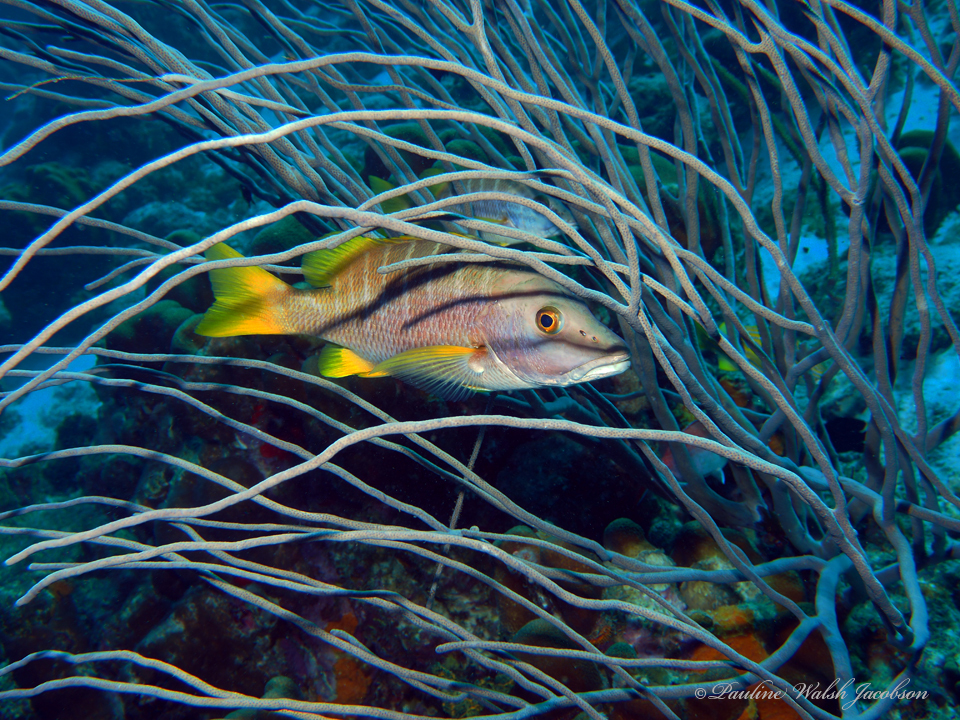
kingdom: Animalia
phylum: Chordata
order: Perciformes
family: Lutjanidae
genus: Lutjanus
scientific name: Lutjanus apodus
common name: Schoolmaster
